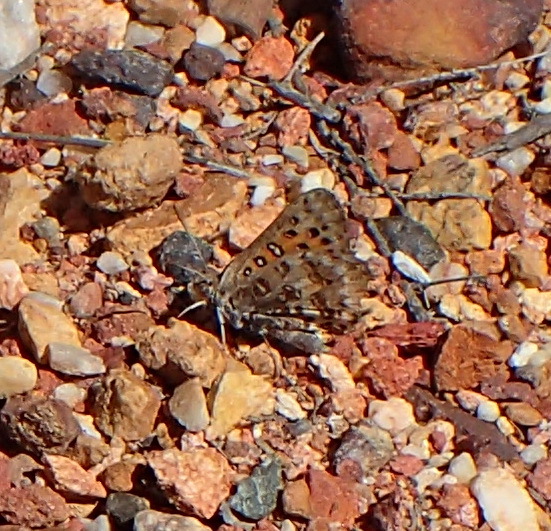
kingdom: Animalia
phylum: Arthropoda
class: Insecta
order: Lepidoptera
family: Lycaenidae
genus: Aloeides
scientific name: Aloeides pierus
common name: Dull copper
